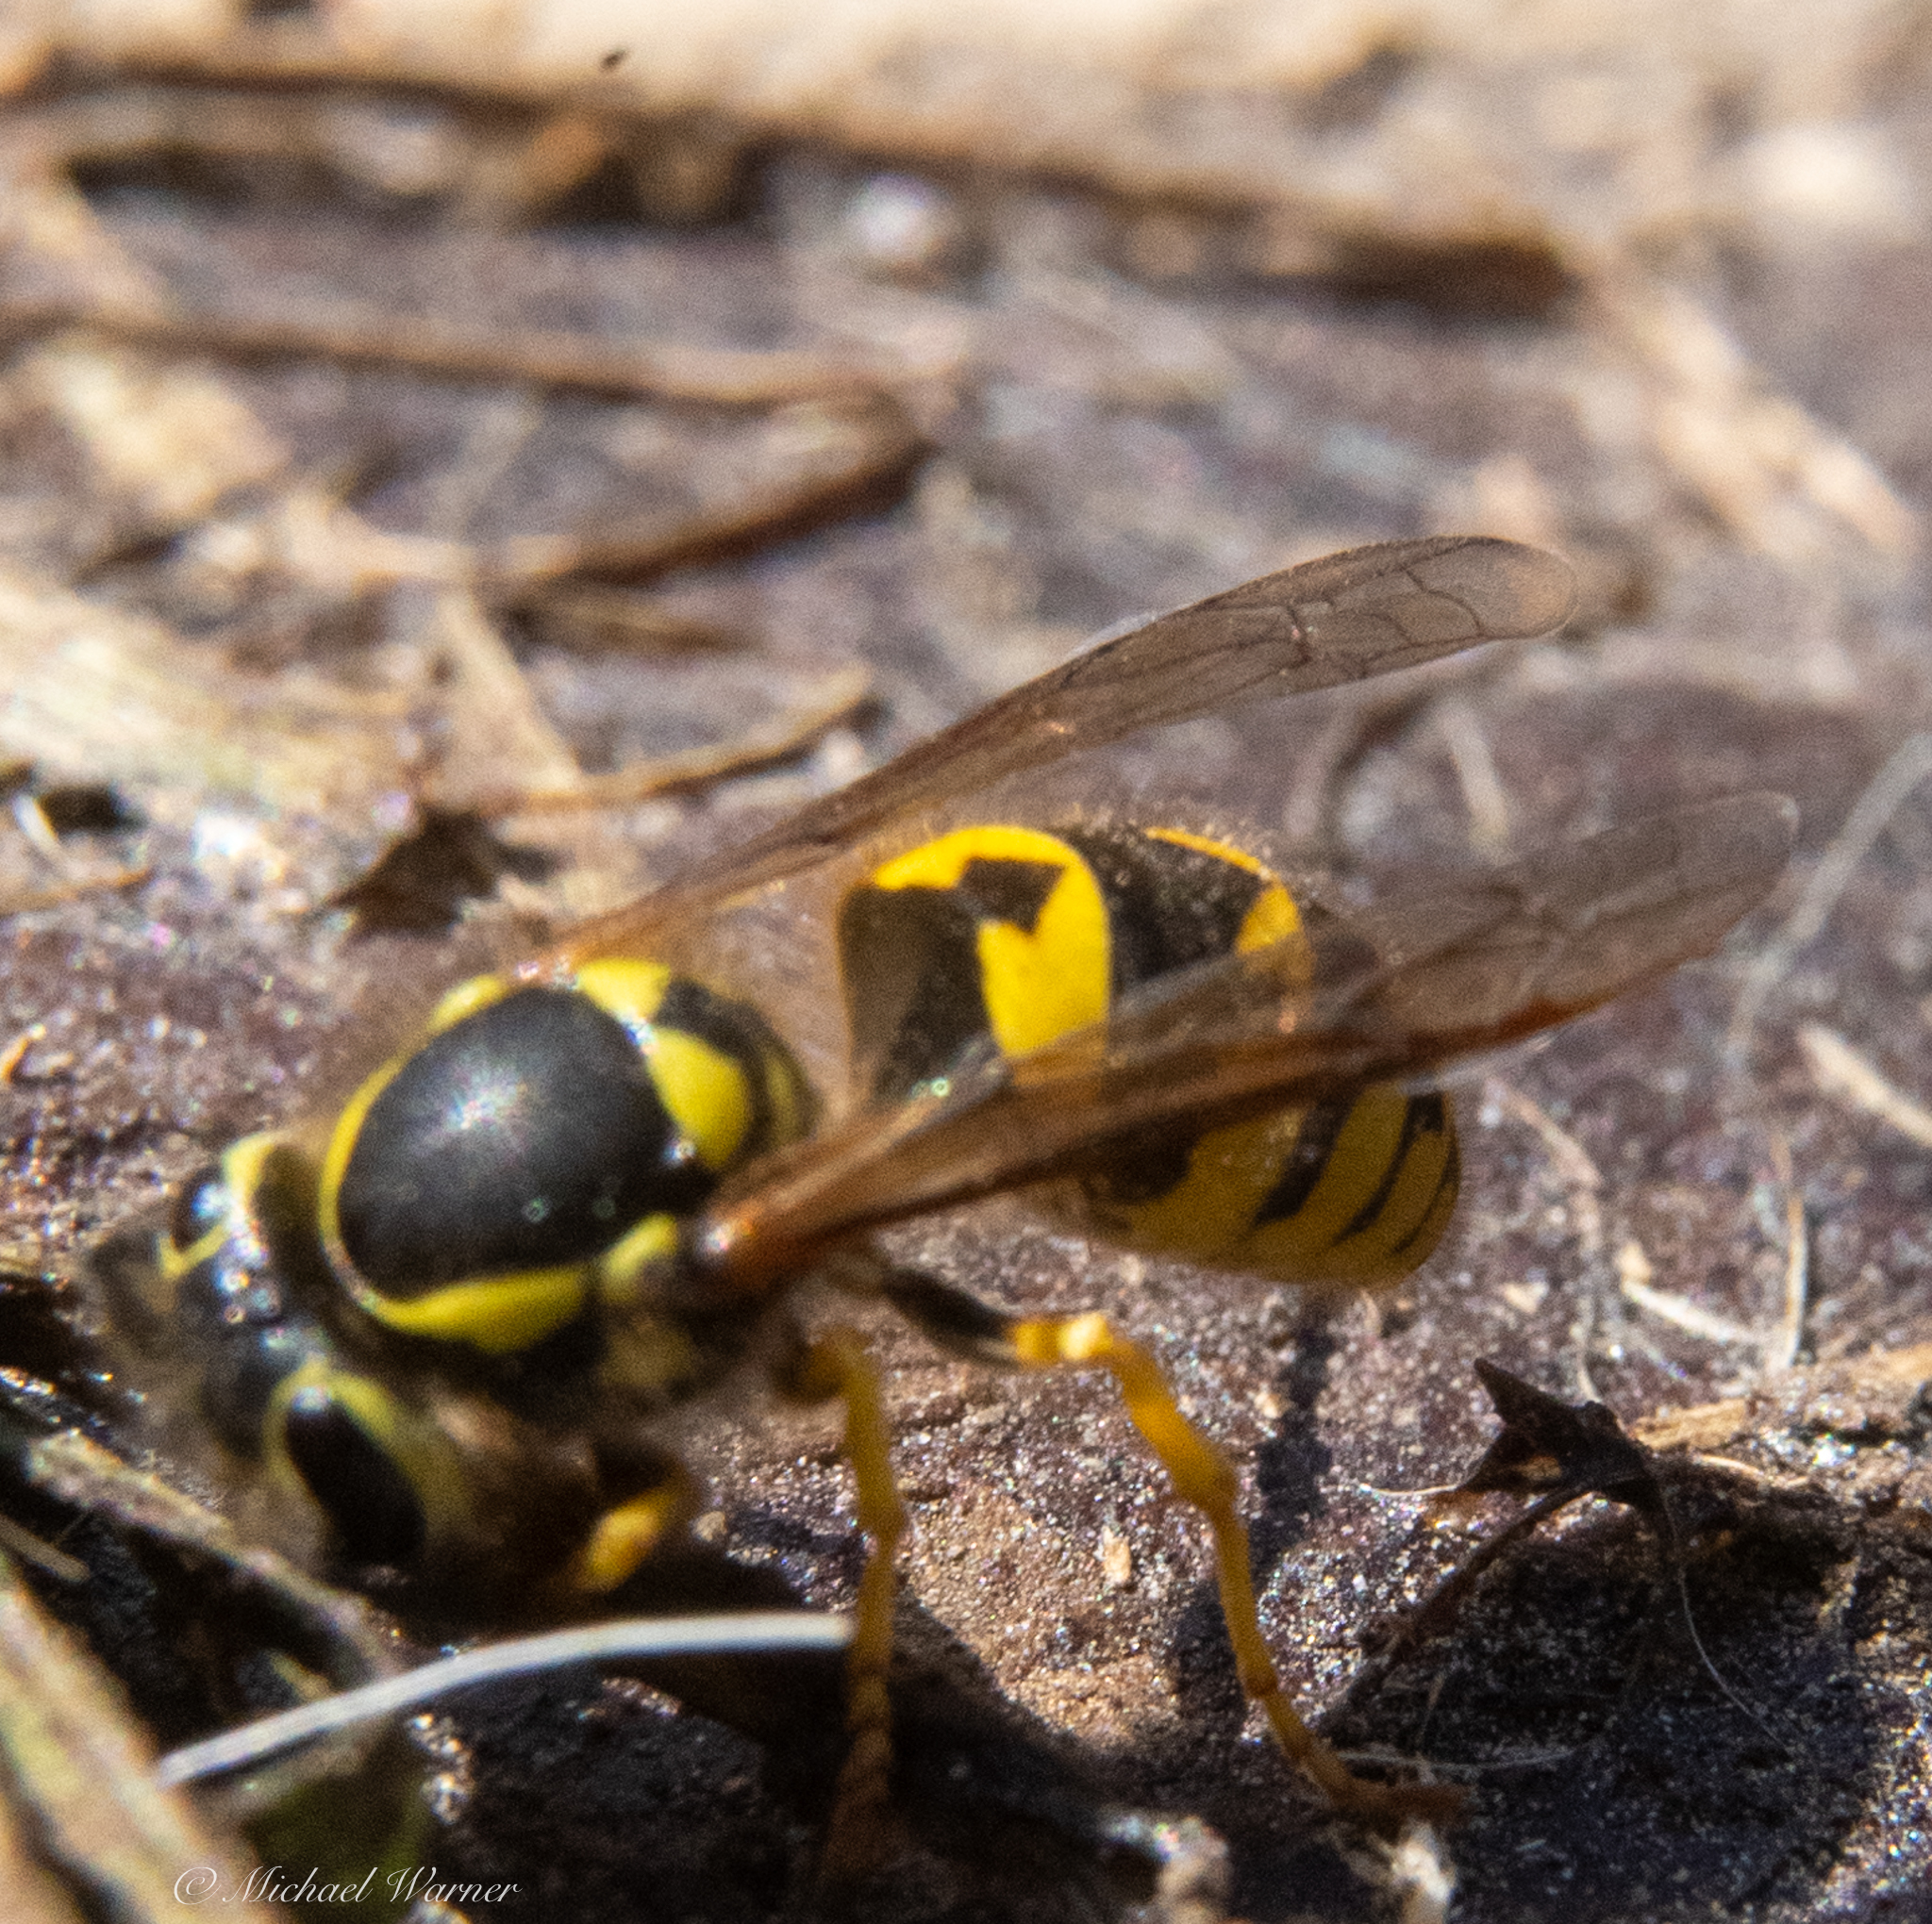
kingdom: Animalia
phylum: Arthropoda
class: Insecta
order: Hymenoptera
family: Vespidae
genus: Vespula
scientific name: Vespula pensylvanica
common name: Western yellowjacket
